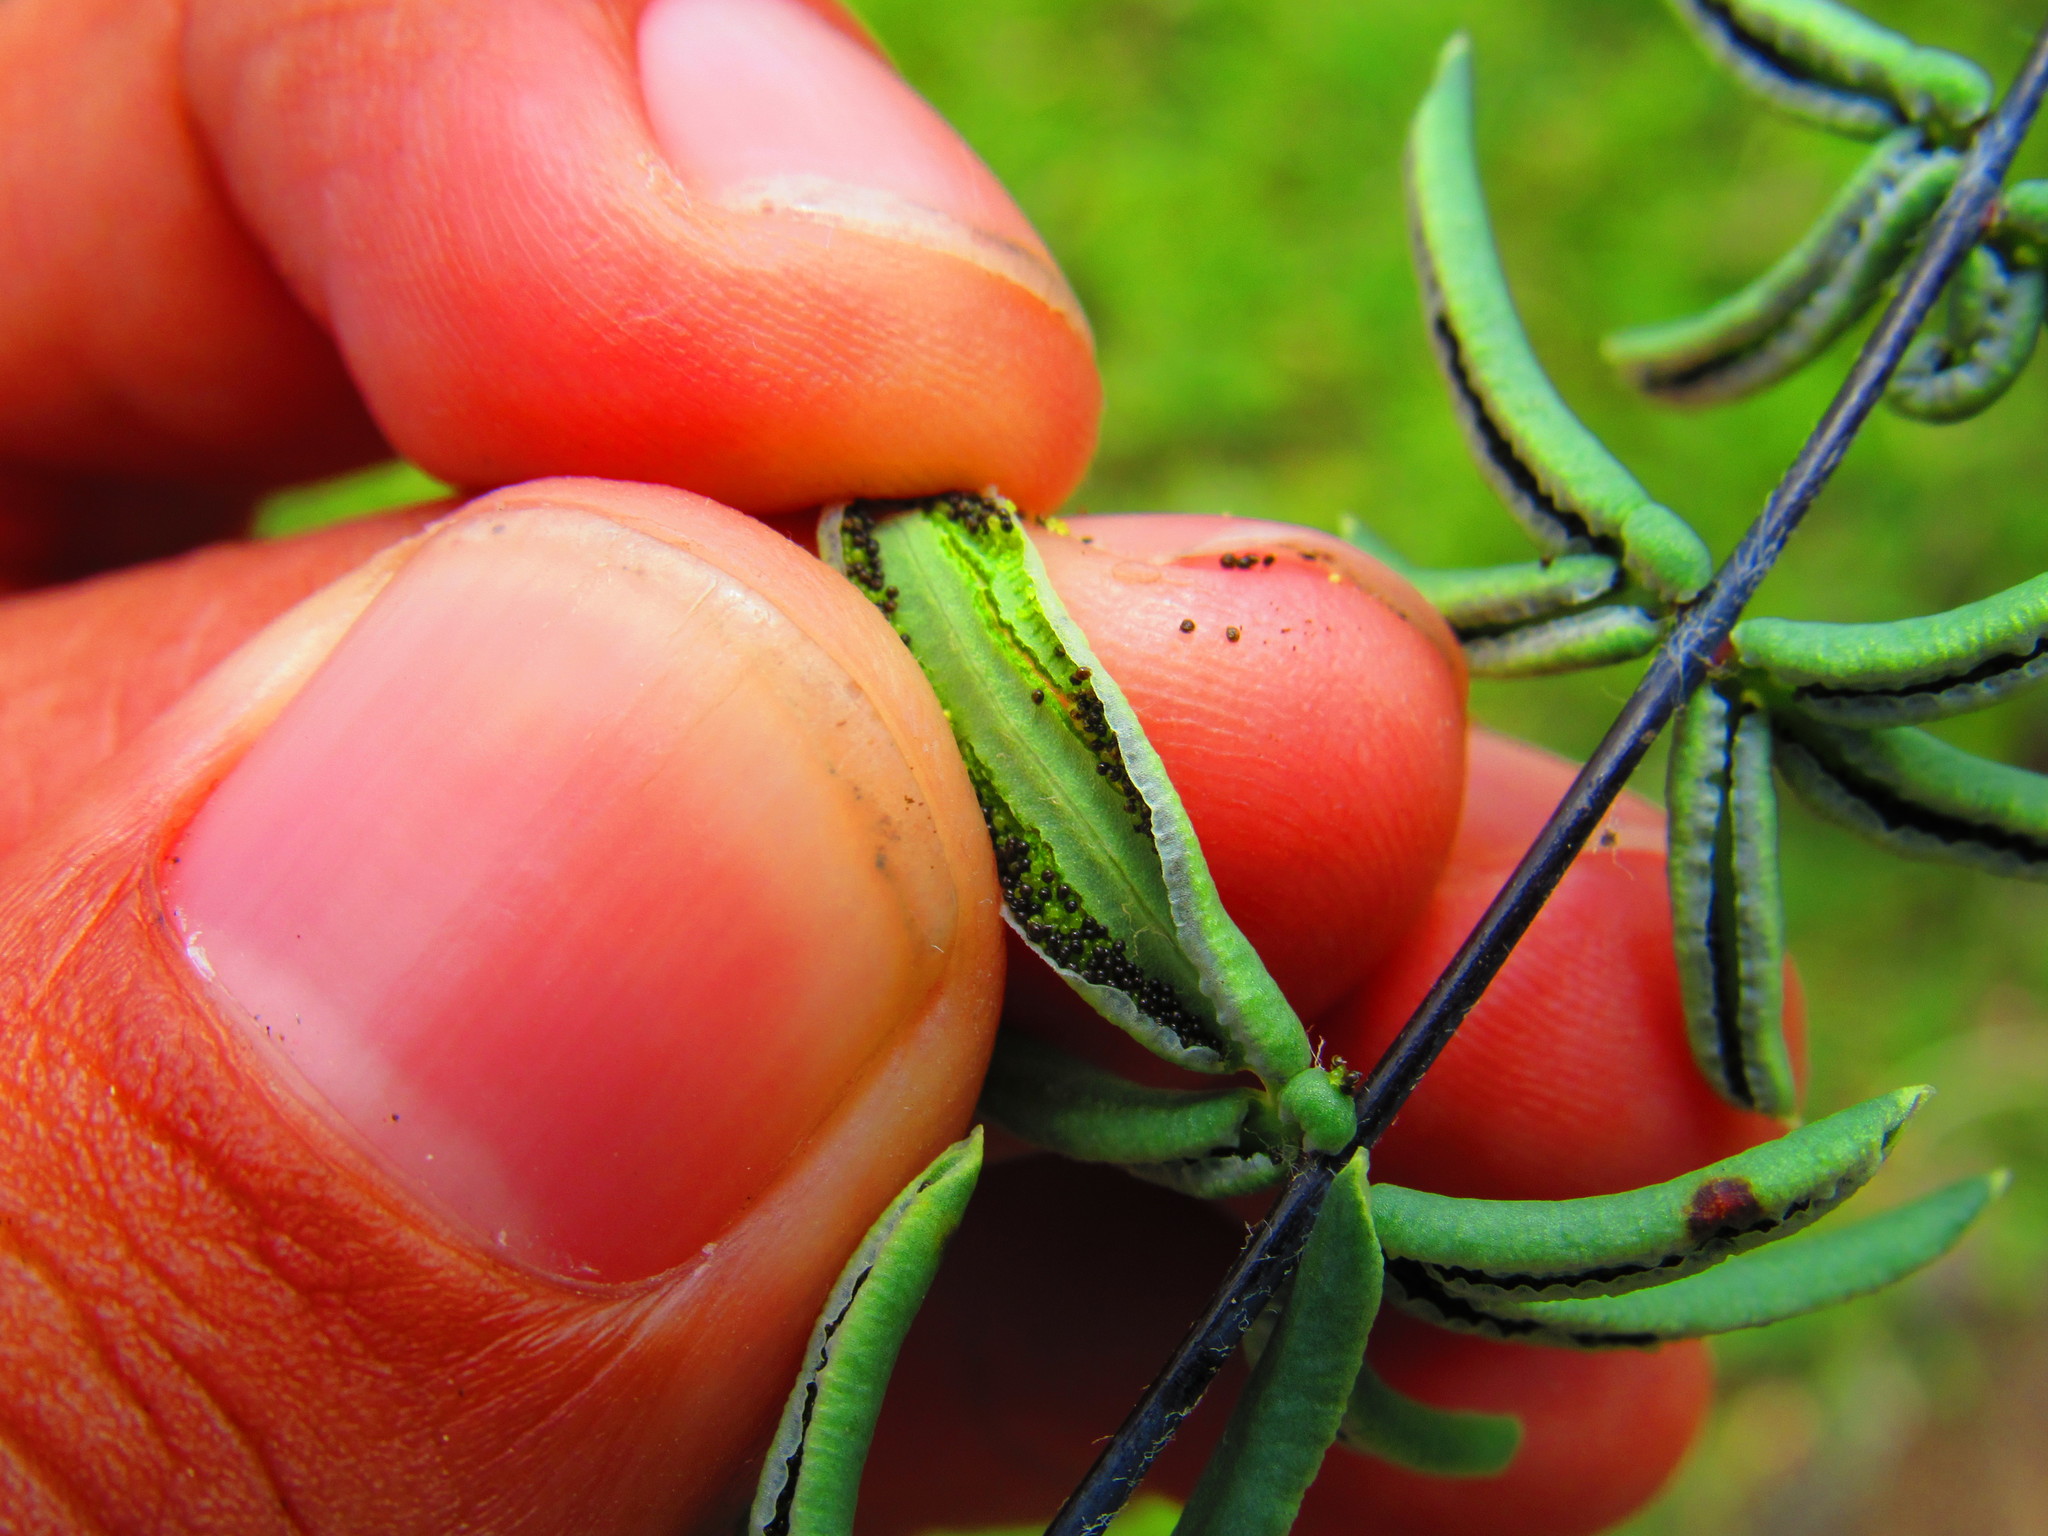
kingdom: Plantae
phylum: Tracheophyta
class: Polypodiopsida
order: Polypodiales
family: Pteridaceae
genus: Pellaea
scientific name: Pellaea ternifolia
